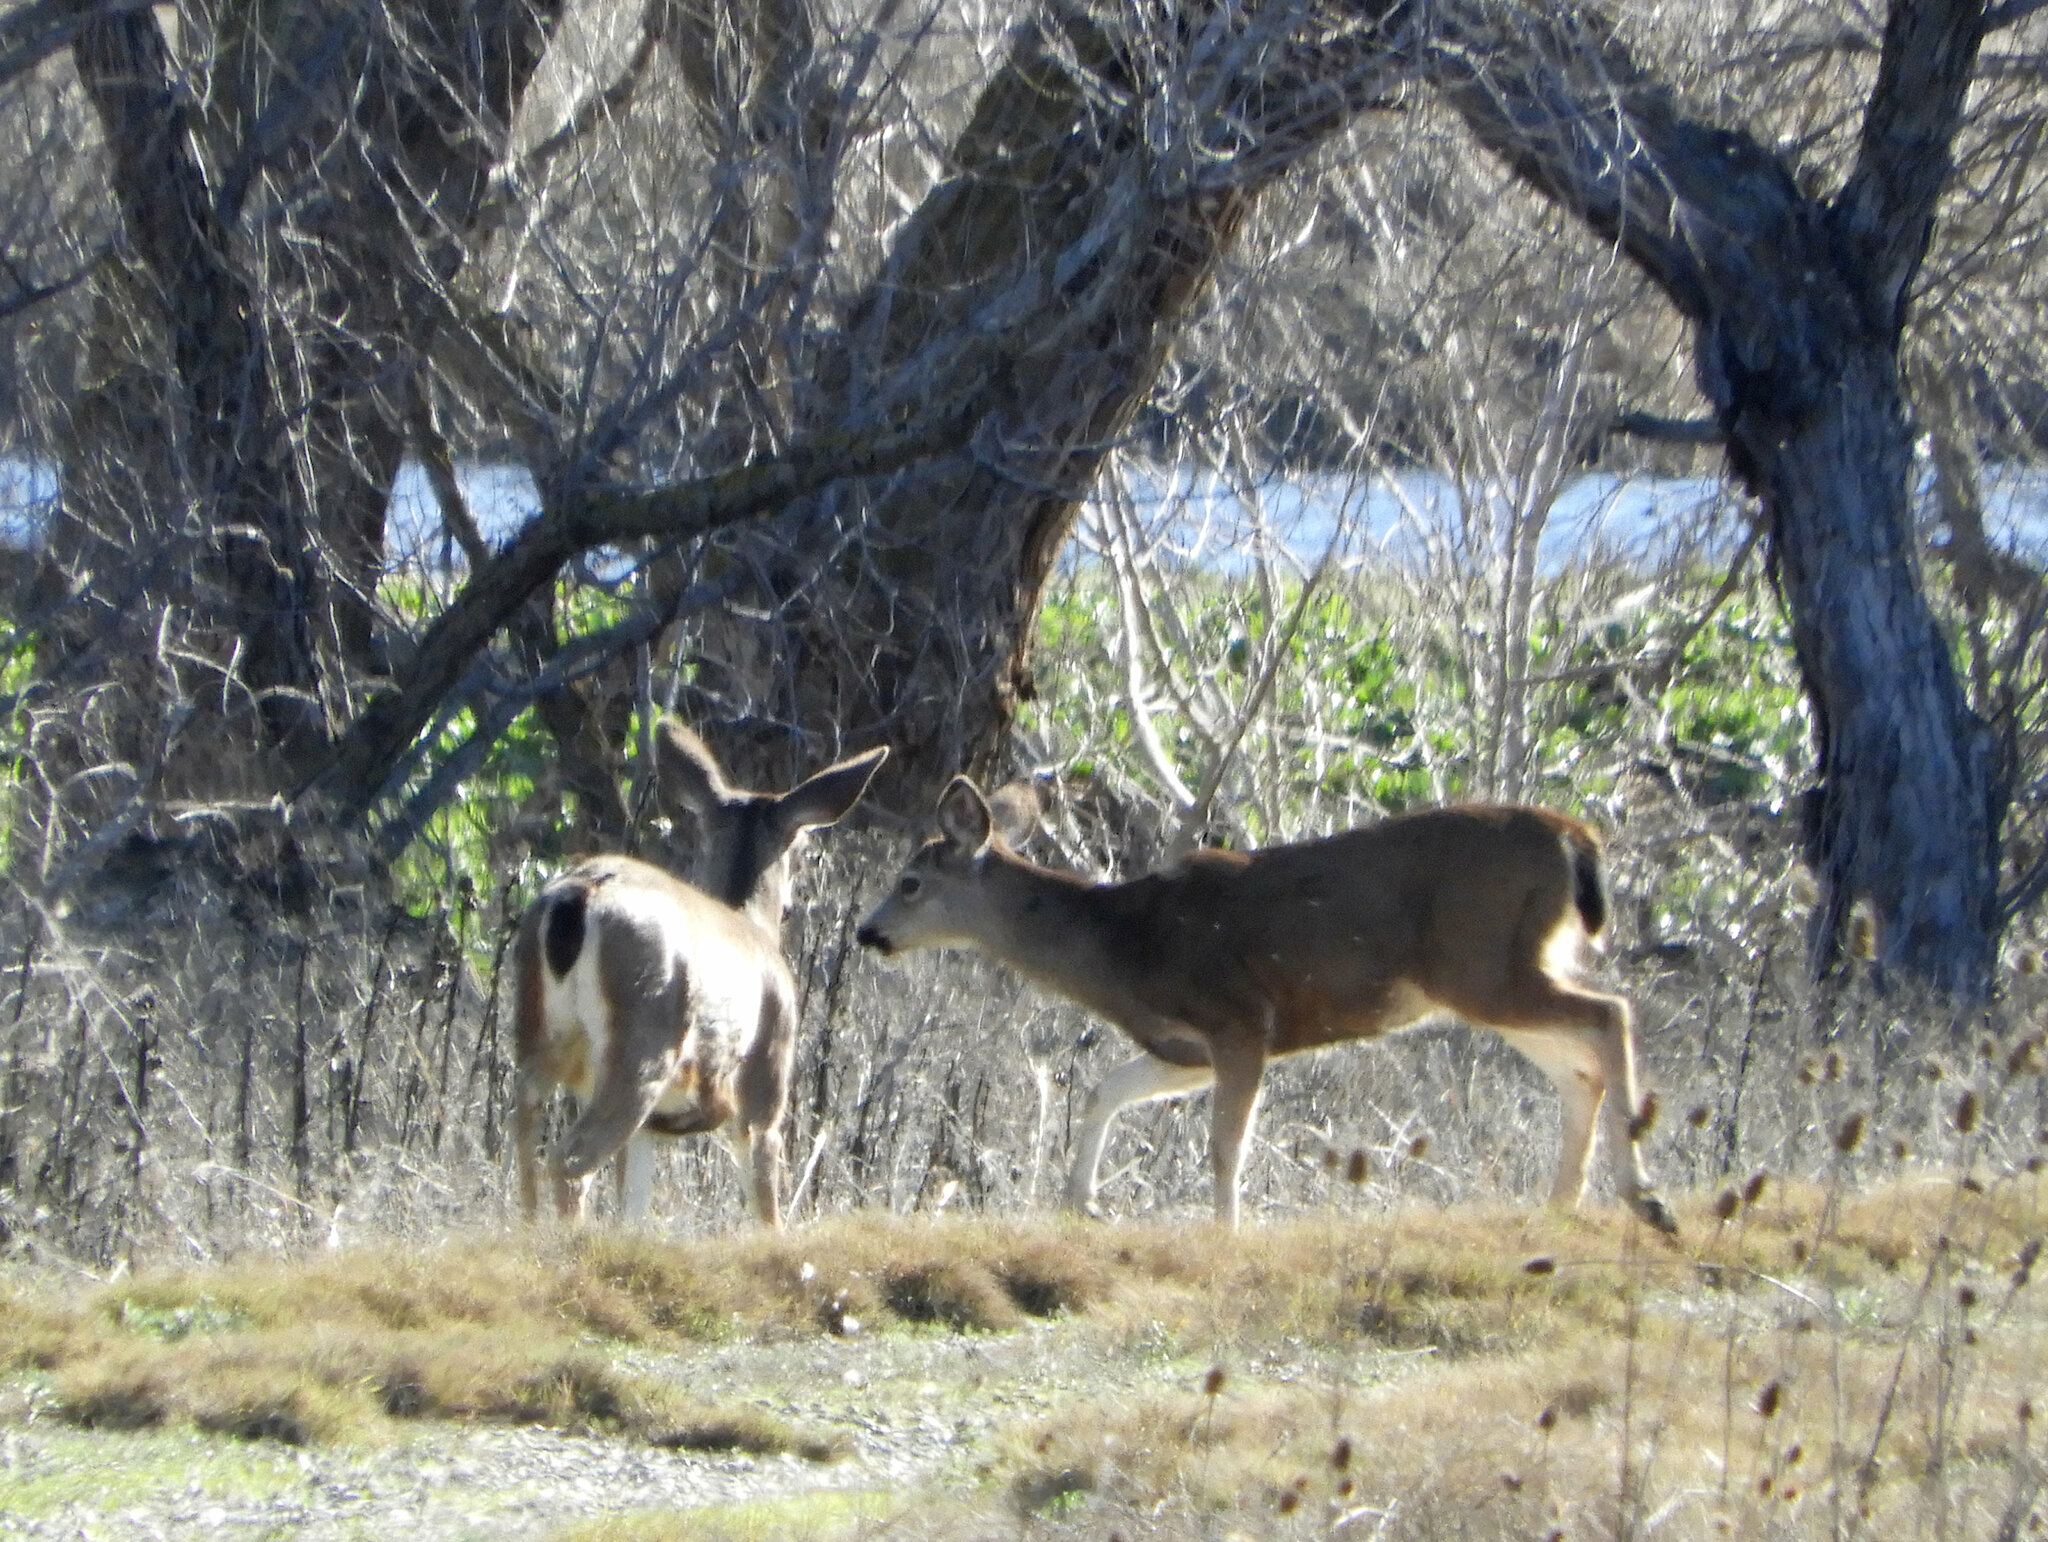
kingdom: Animalia
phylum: Chordata
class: Mammalia
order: Artiodactyla
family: Cervidae
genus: Odocoileus
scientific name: Odocoileus hemionus
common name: Mule deer
